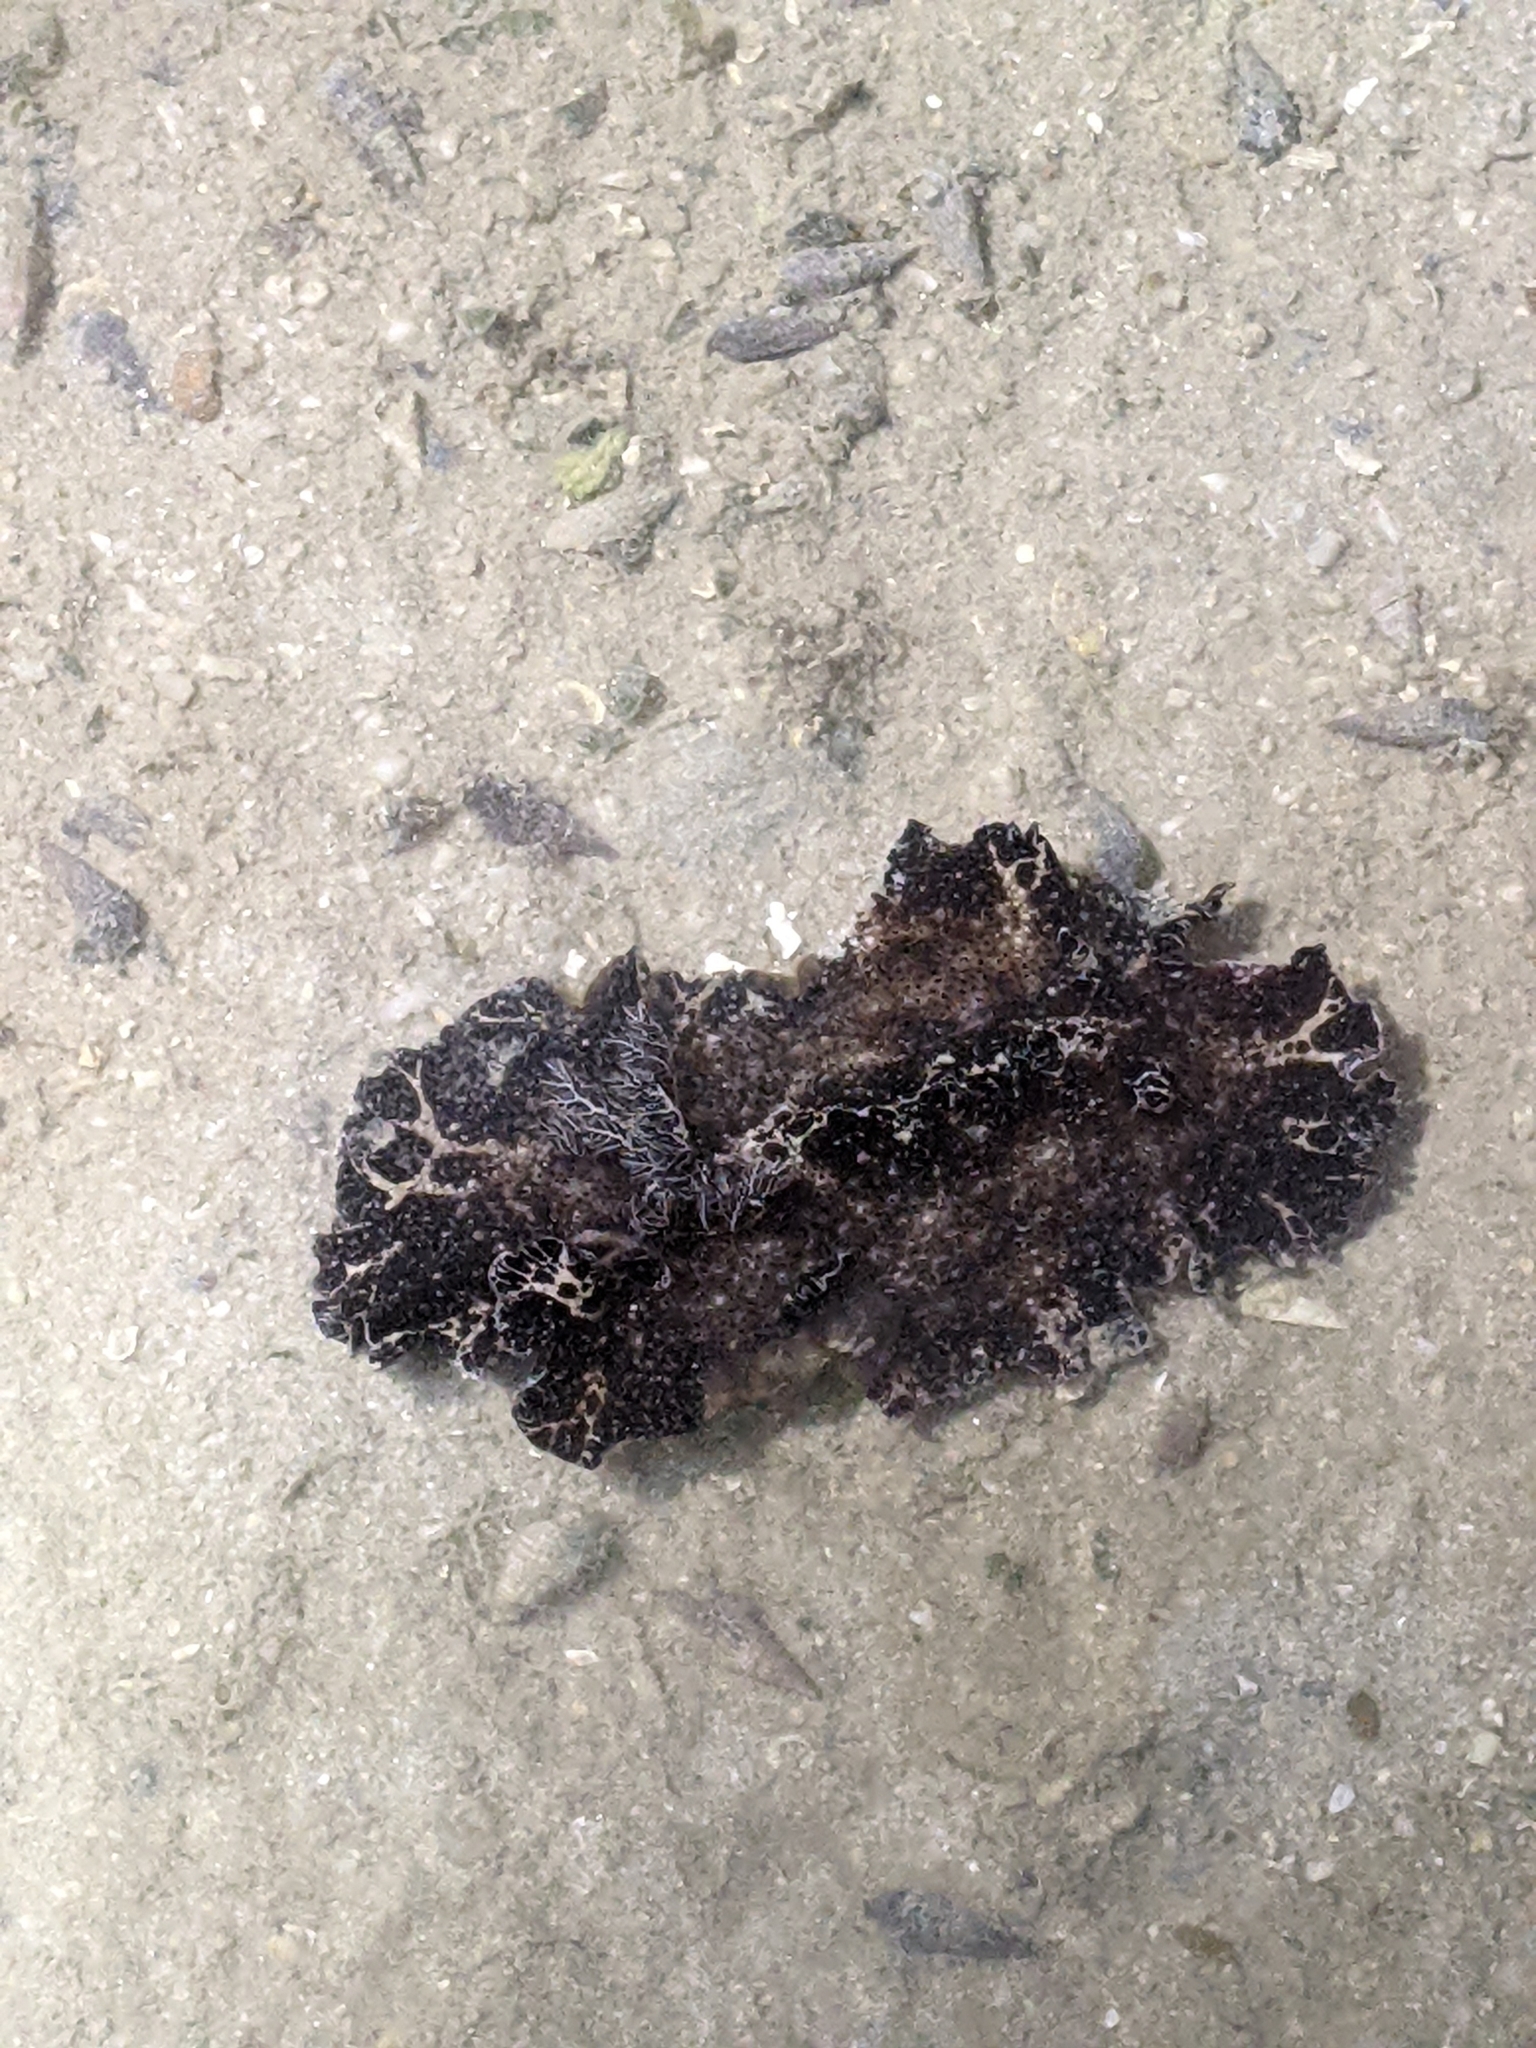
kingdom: Animalia
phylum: Mollusca
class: Gastropoda
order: Nudibranchia
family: Discodorididae
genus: Discodoris
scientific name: Discodoris boholiensis
